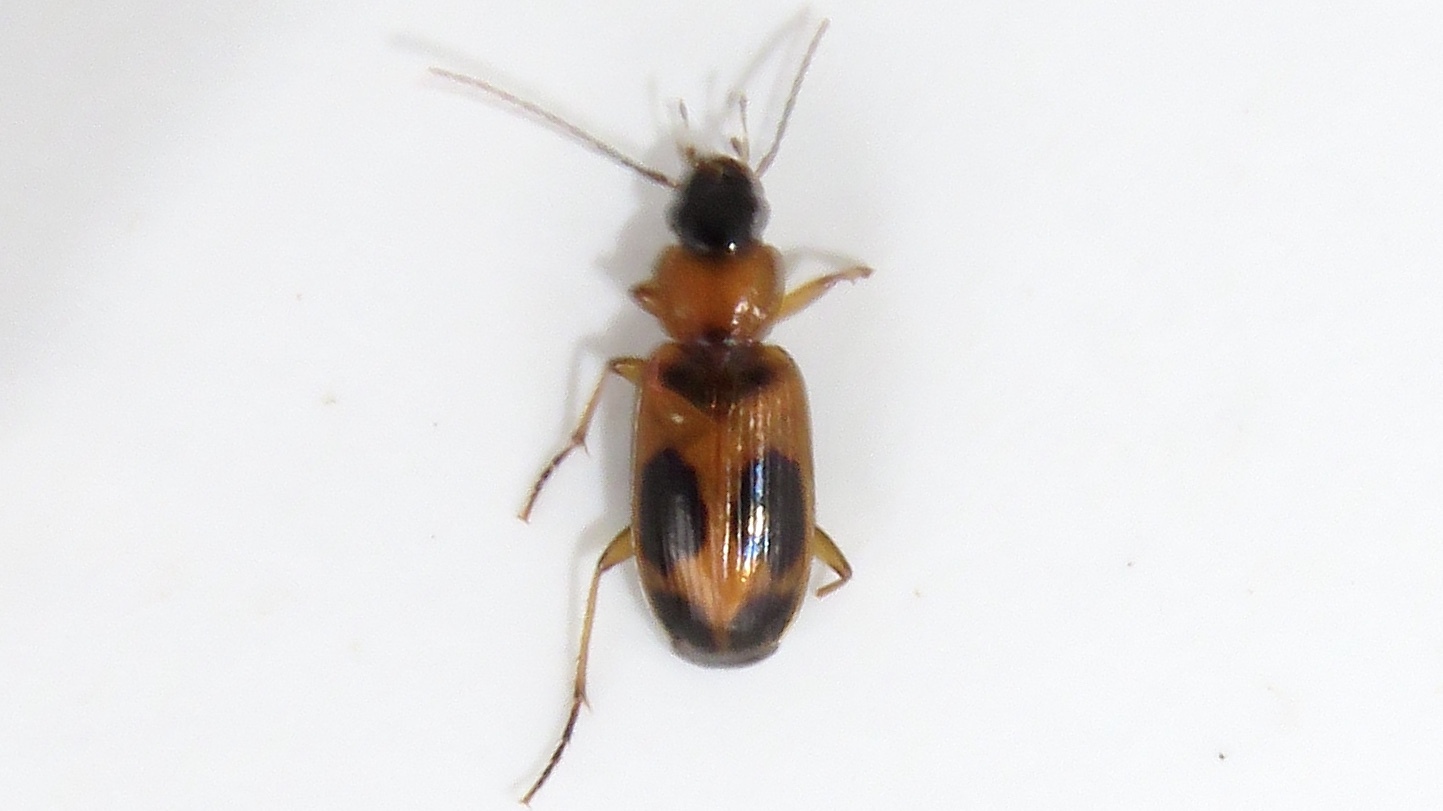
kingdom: Animalia
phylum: Arthropoda
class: Insecta
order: Coleoptera
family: Carabidae
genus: Badister
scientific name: Badister neopulchellus
